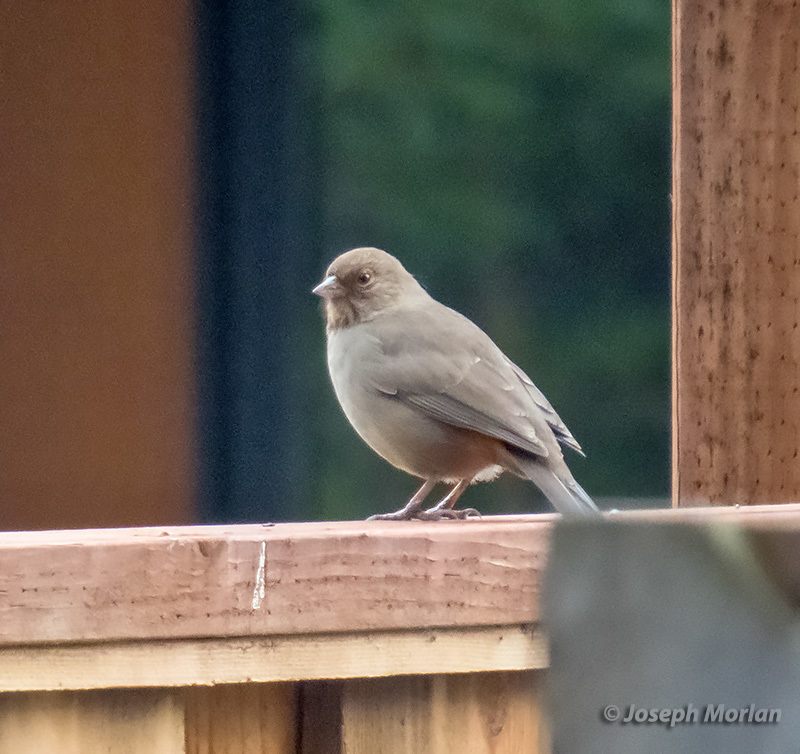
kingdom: Animalia
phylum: Chordata
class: Aves
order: Passeriformes
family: Passerellidae
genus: Melozone
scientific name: Melozone crissalis
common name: California towhee
